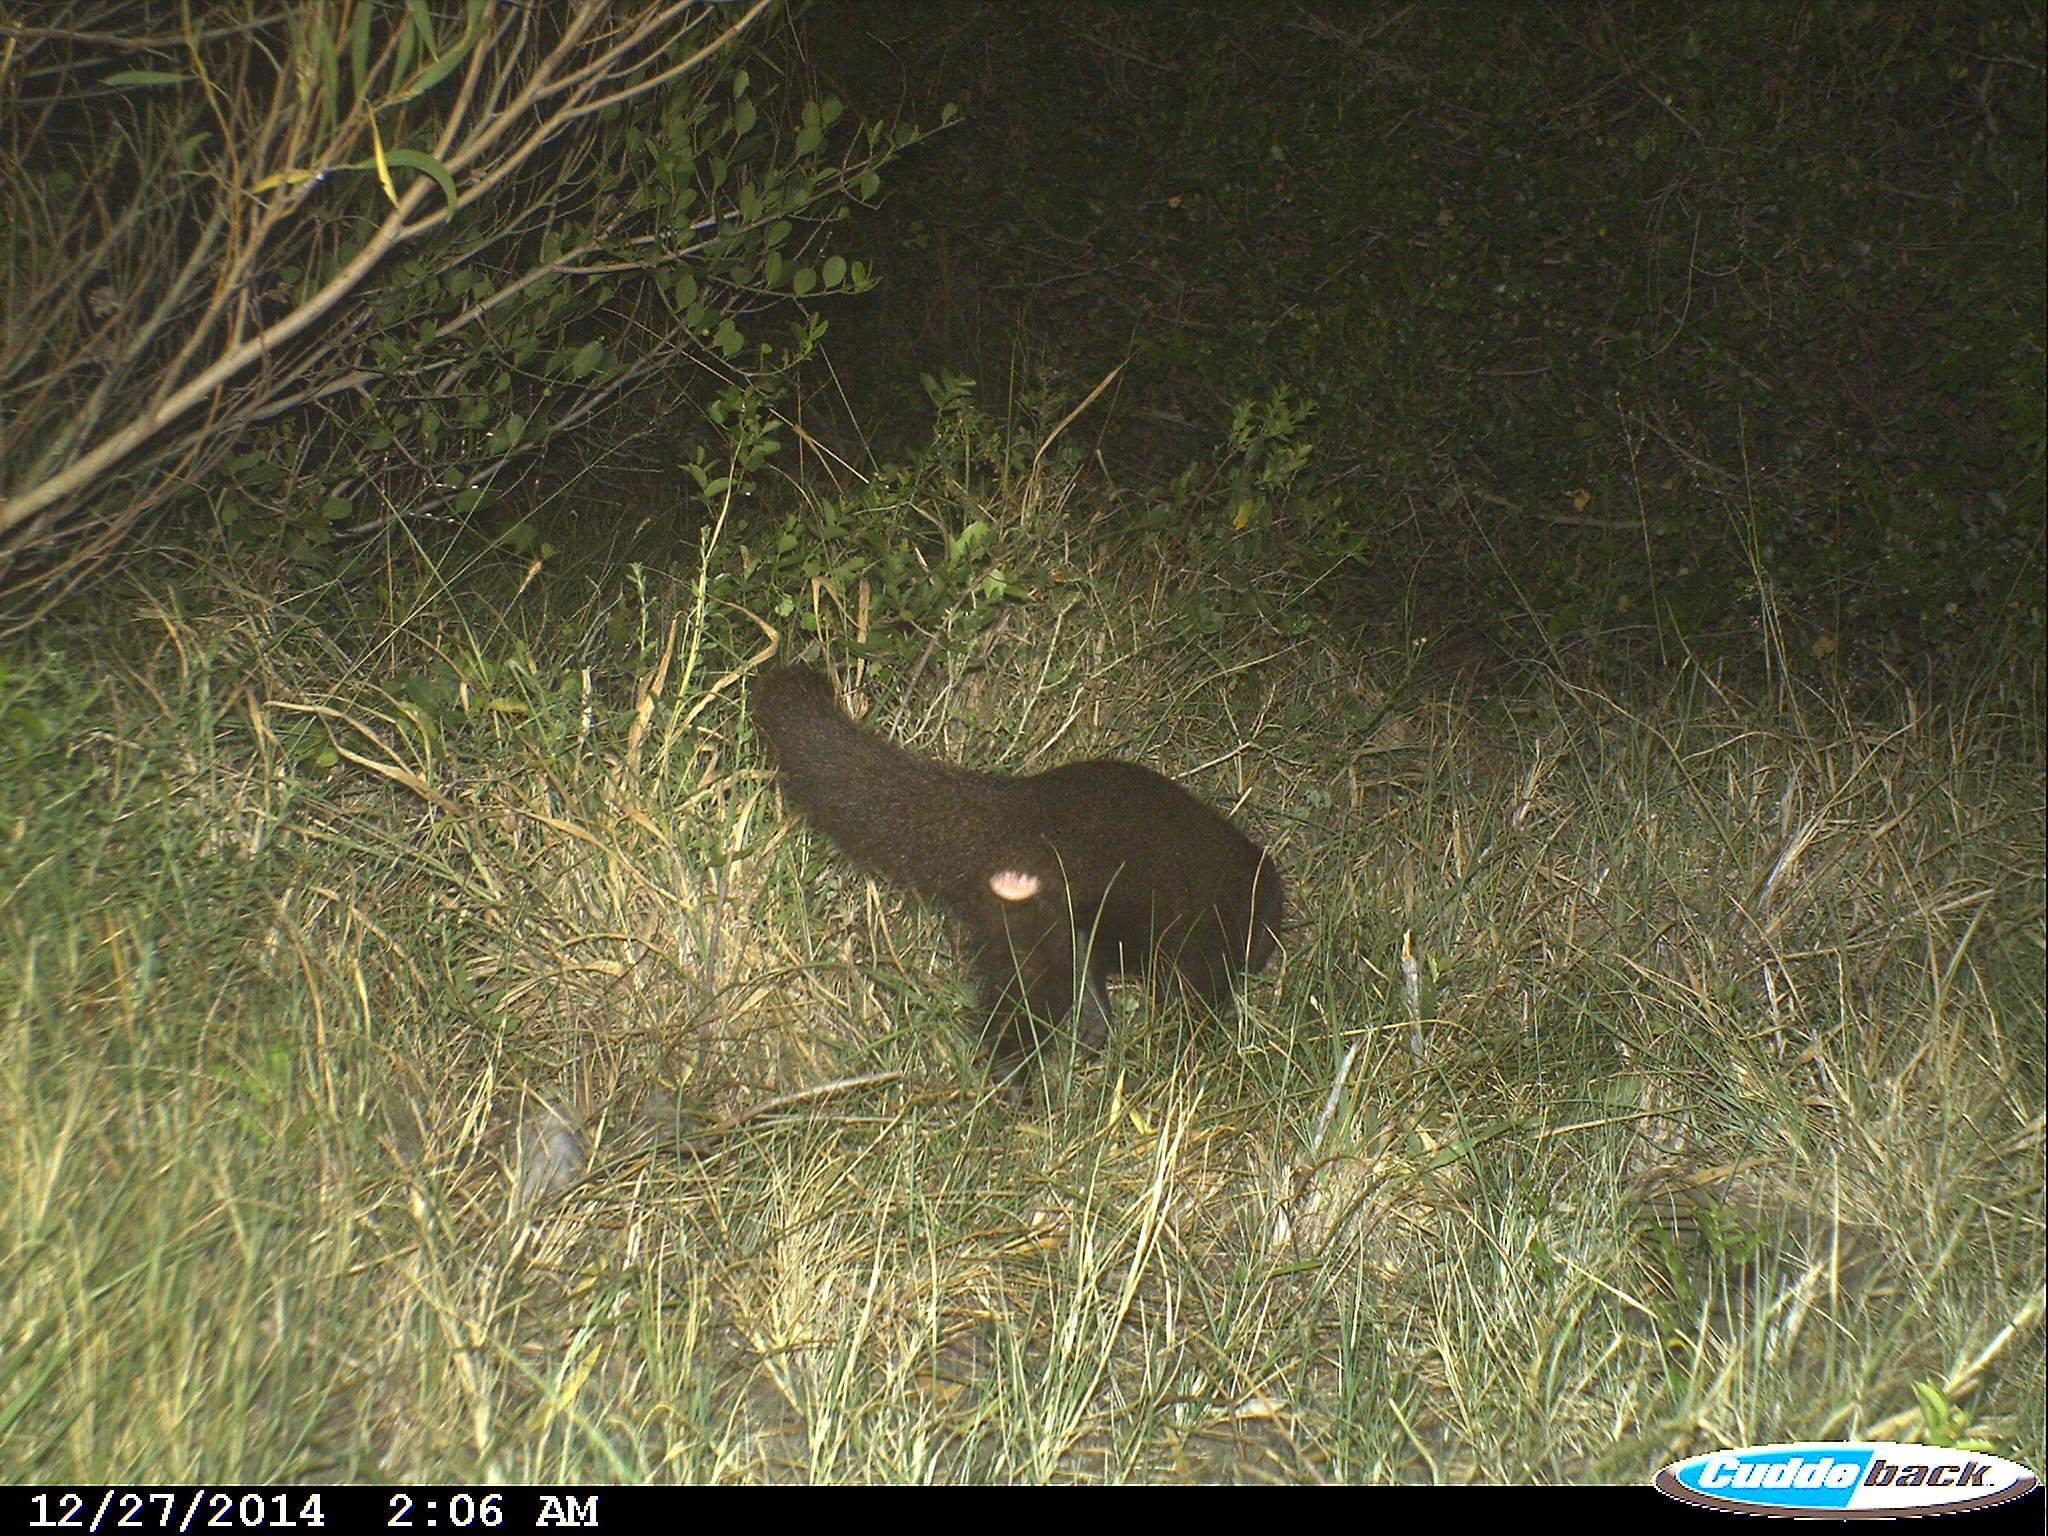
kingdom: Animalia
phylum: Chordata
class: Mammalia
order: Carnivora
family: Herpestidae
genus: Atilax
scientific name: Atilax paludinosus
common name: Marsh mongoose
